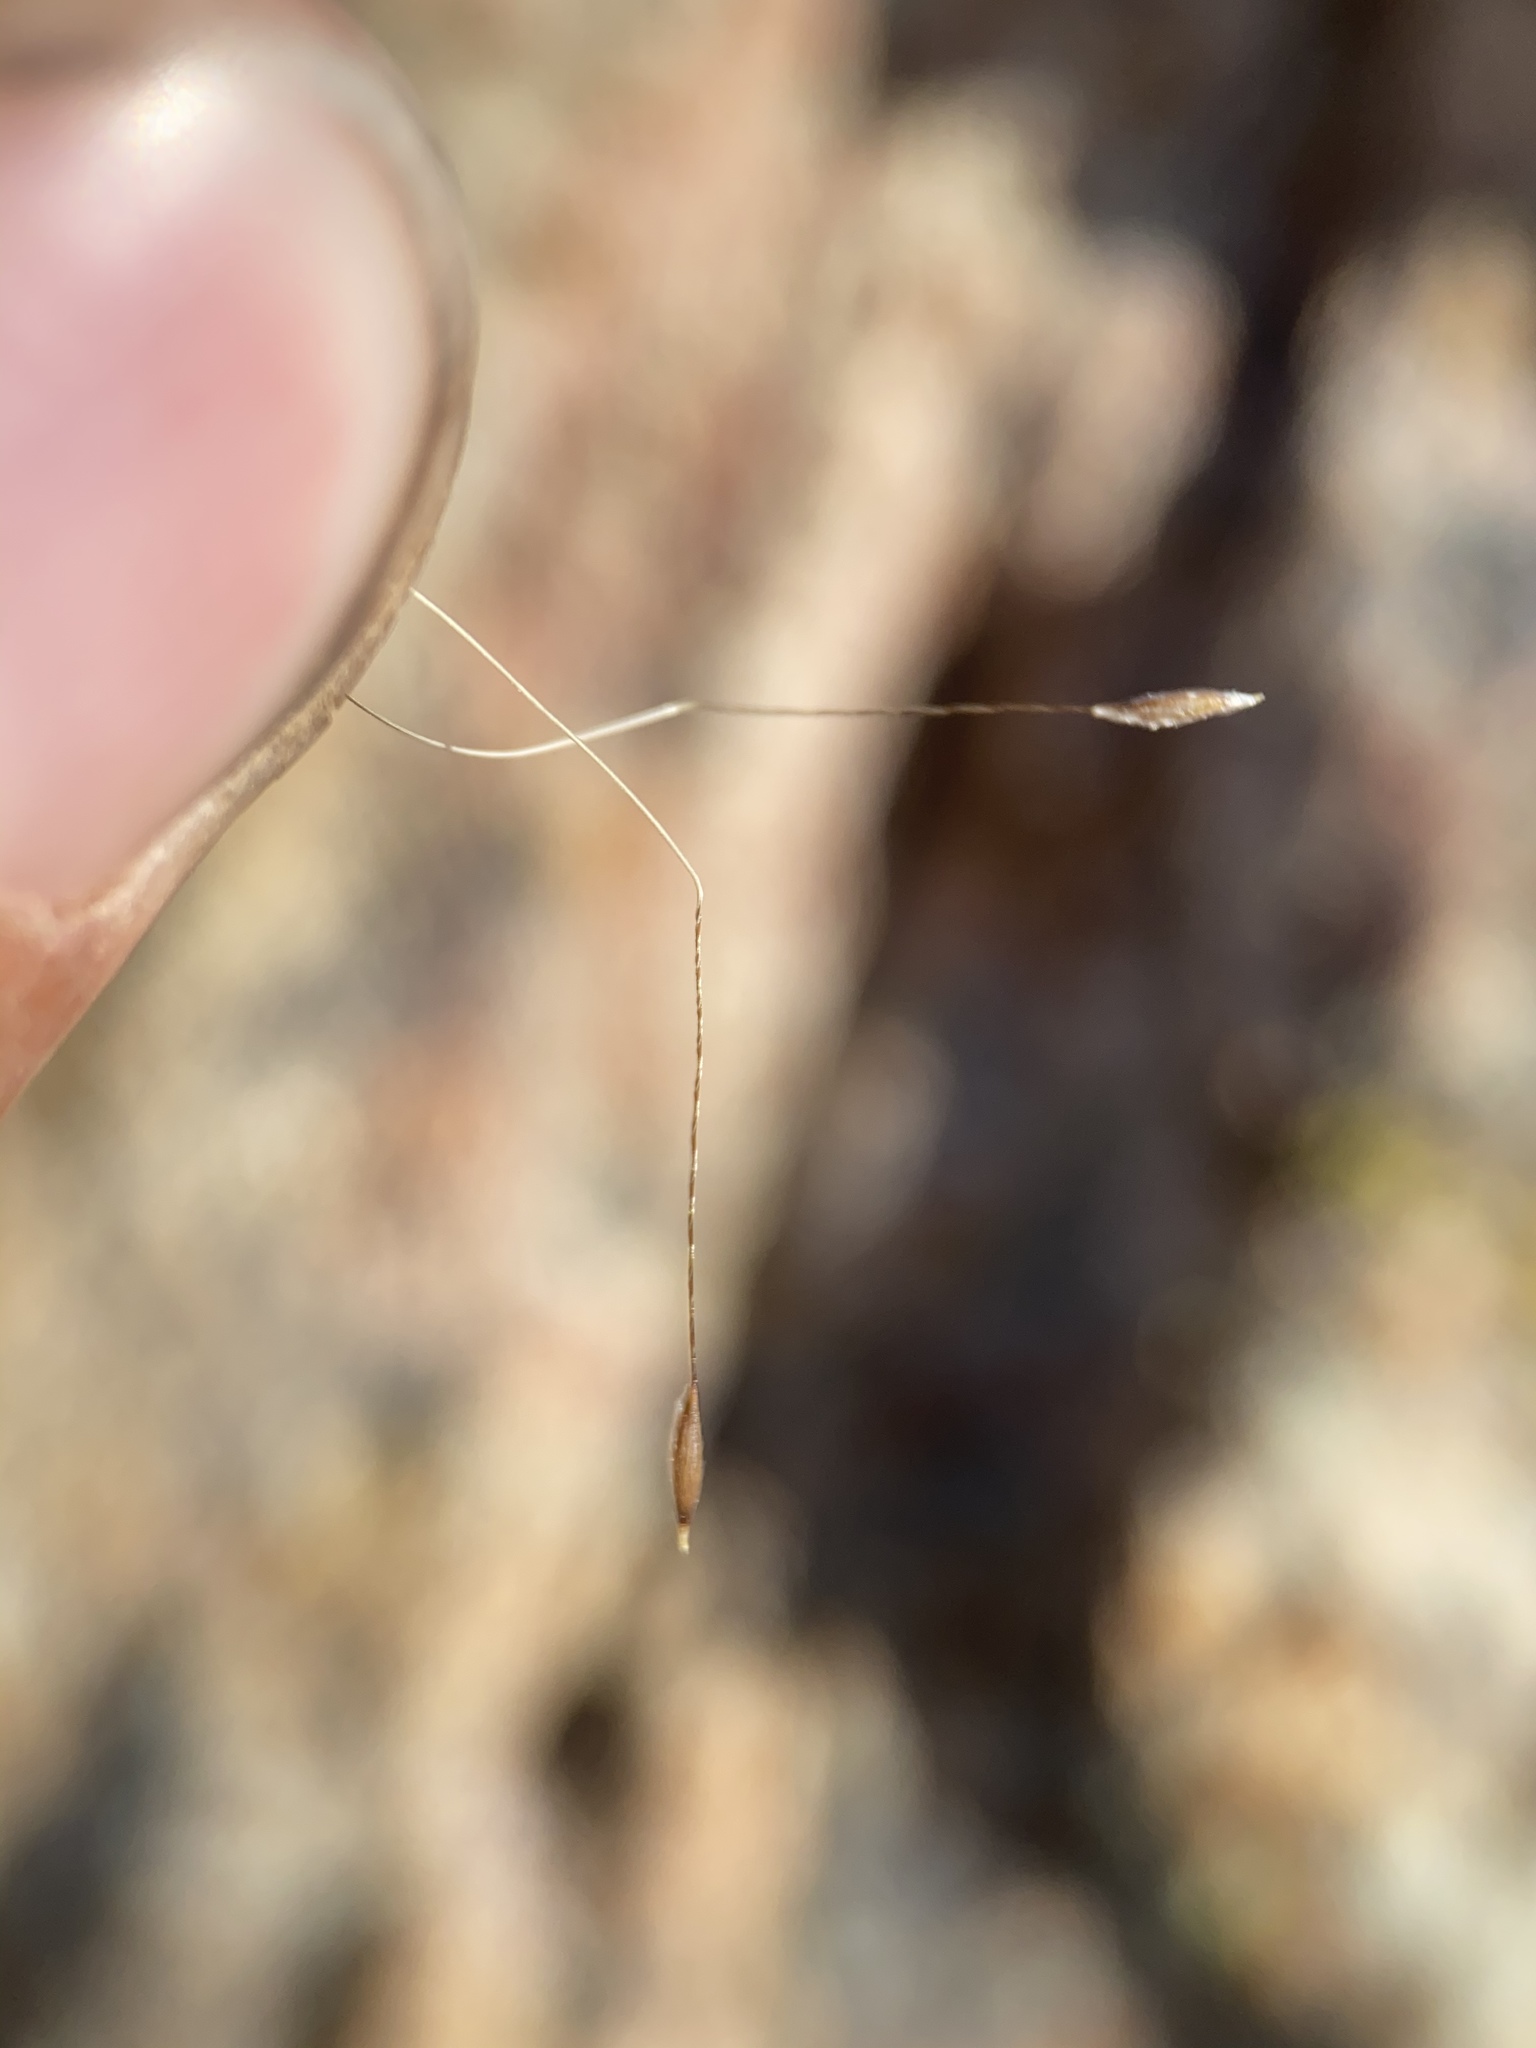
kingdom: Plantae
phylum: Tracheophyta
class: Liliopsida
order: Poales
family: Poaceae
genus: Eriocoma
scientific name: Eriocoma arida
